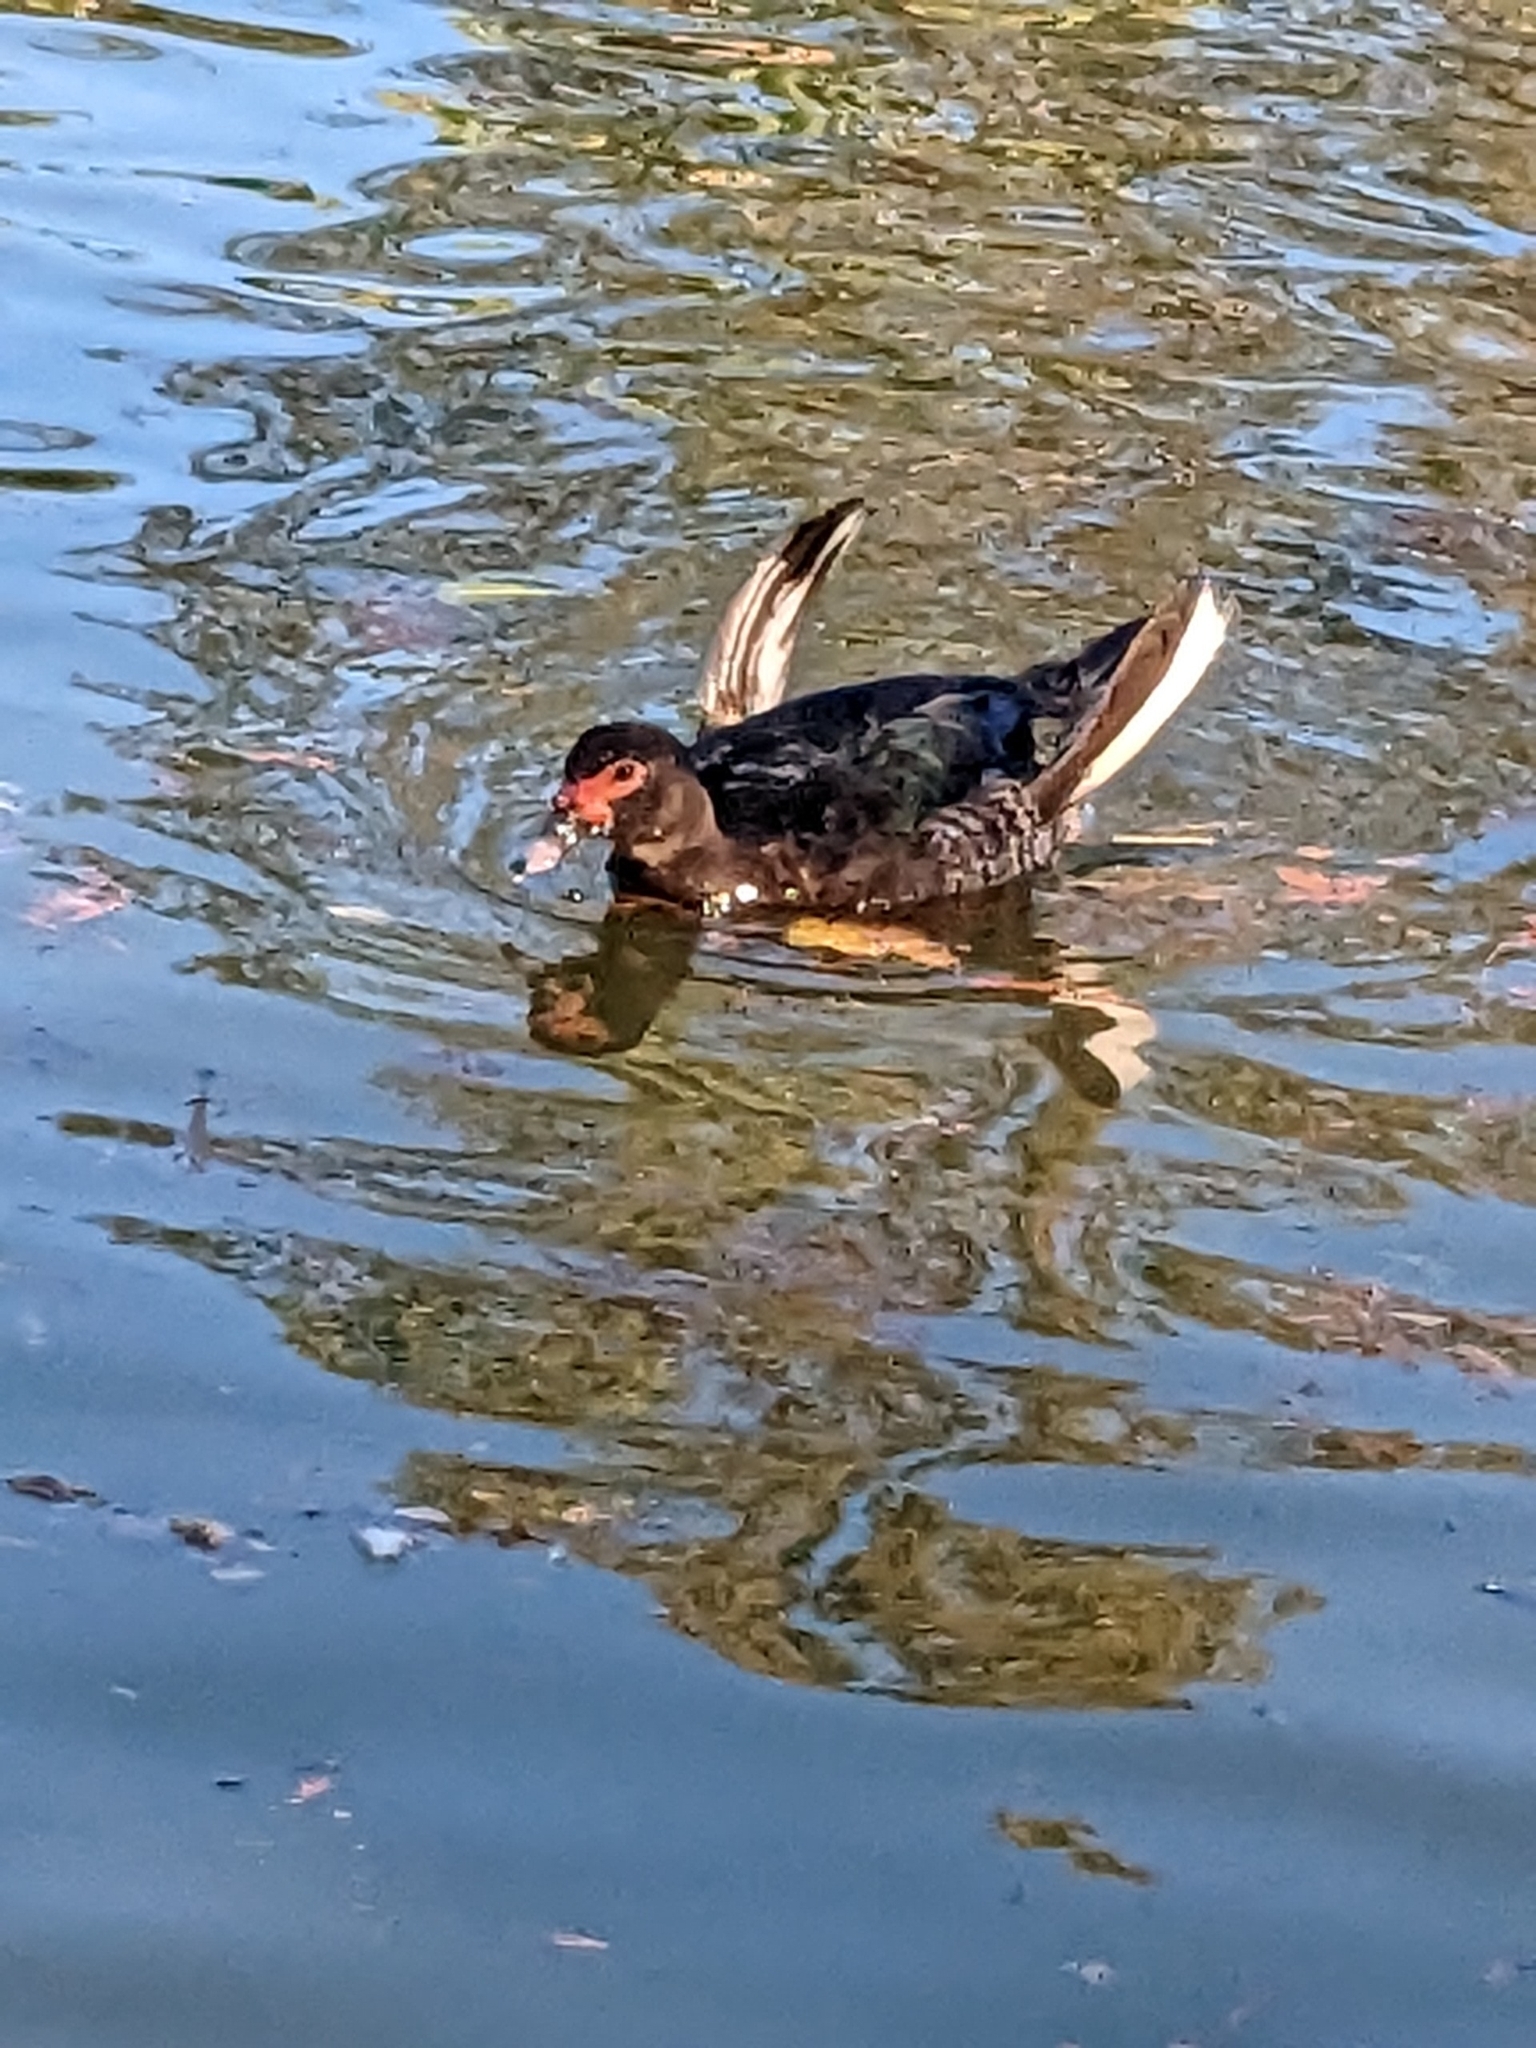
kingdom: Animalia
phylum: Chordata
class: Aves
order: Anseriformes
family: Anatidae
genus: Cairina
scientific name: Cairina moschata
